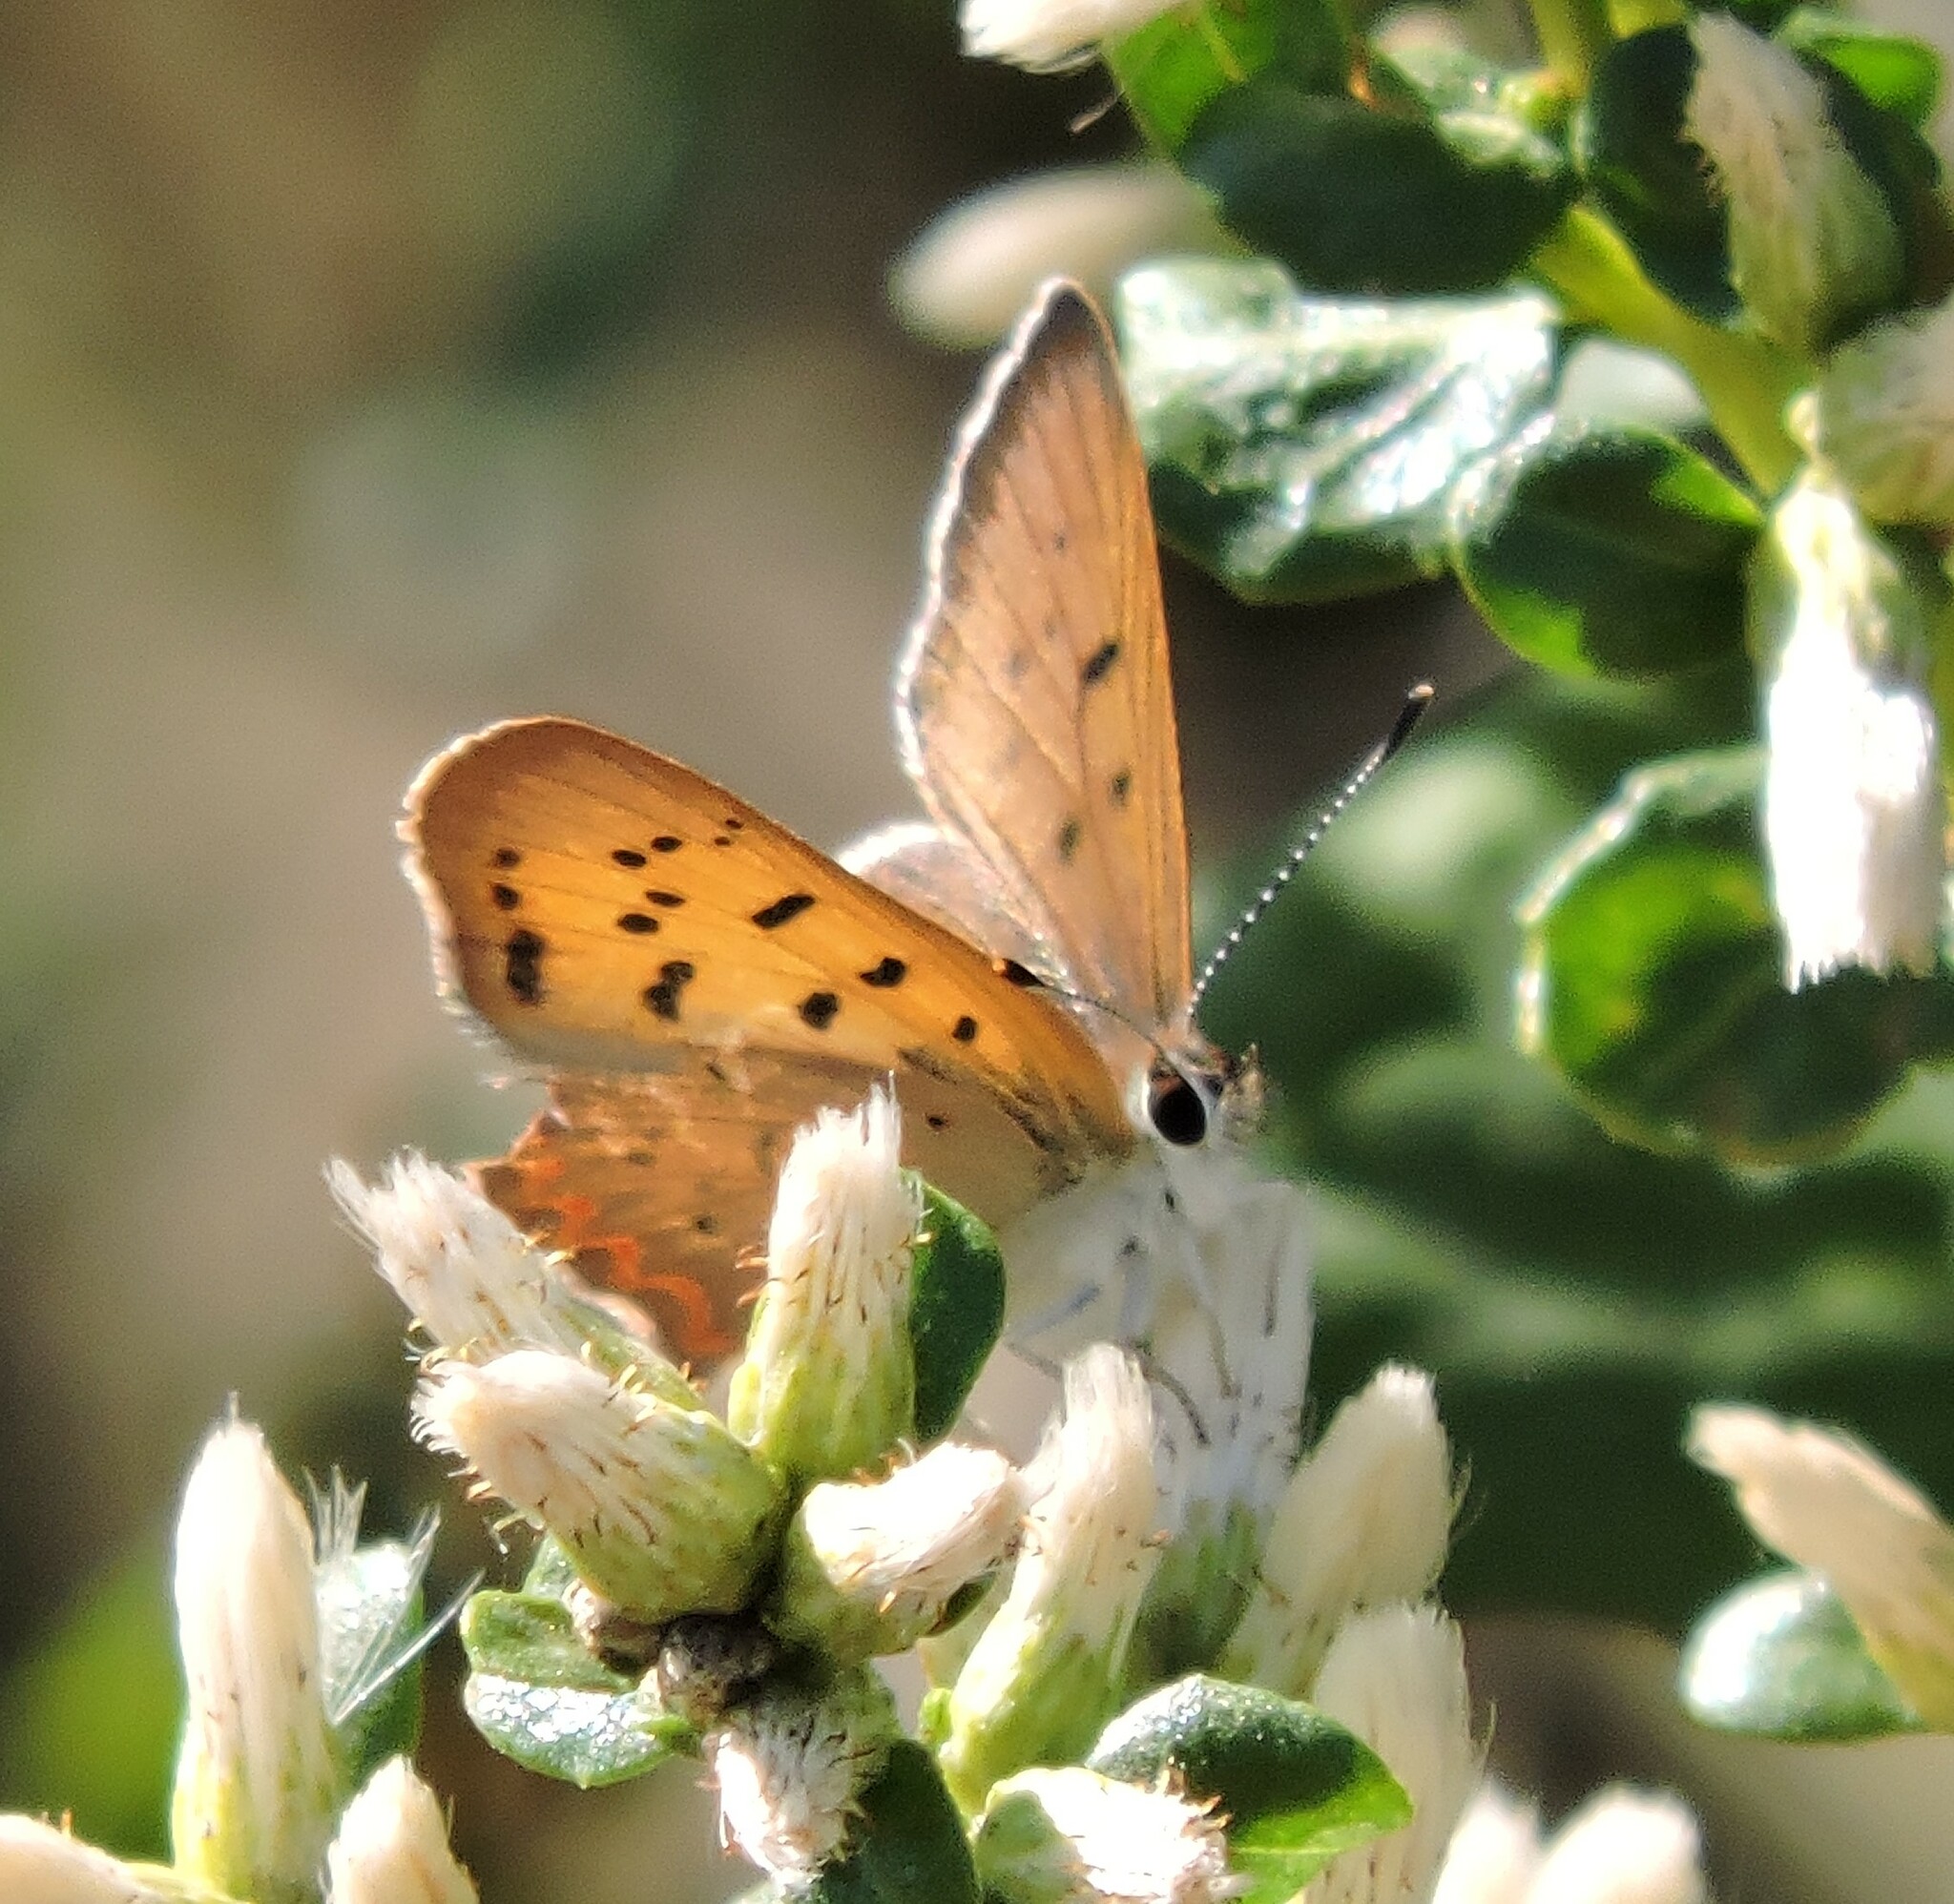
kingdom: Animalia
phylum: Arthropoda
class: Insecta
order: Lepidoptera
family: Lycaenidae
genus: Tharsalea
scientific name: Tharsalea helloides
